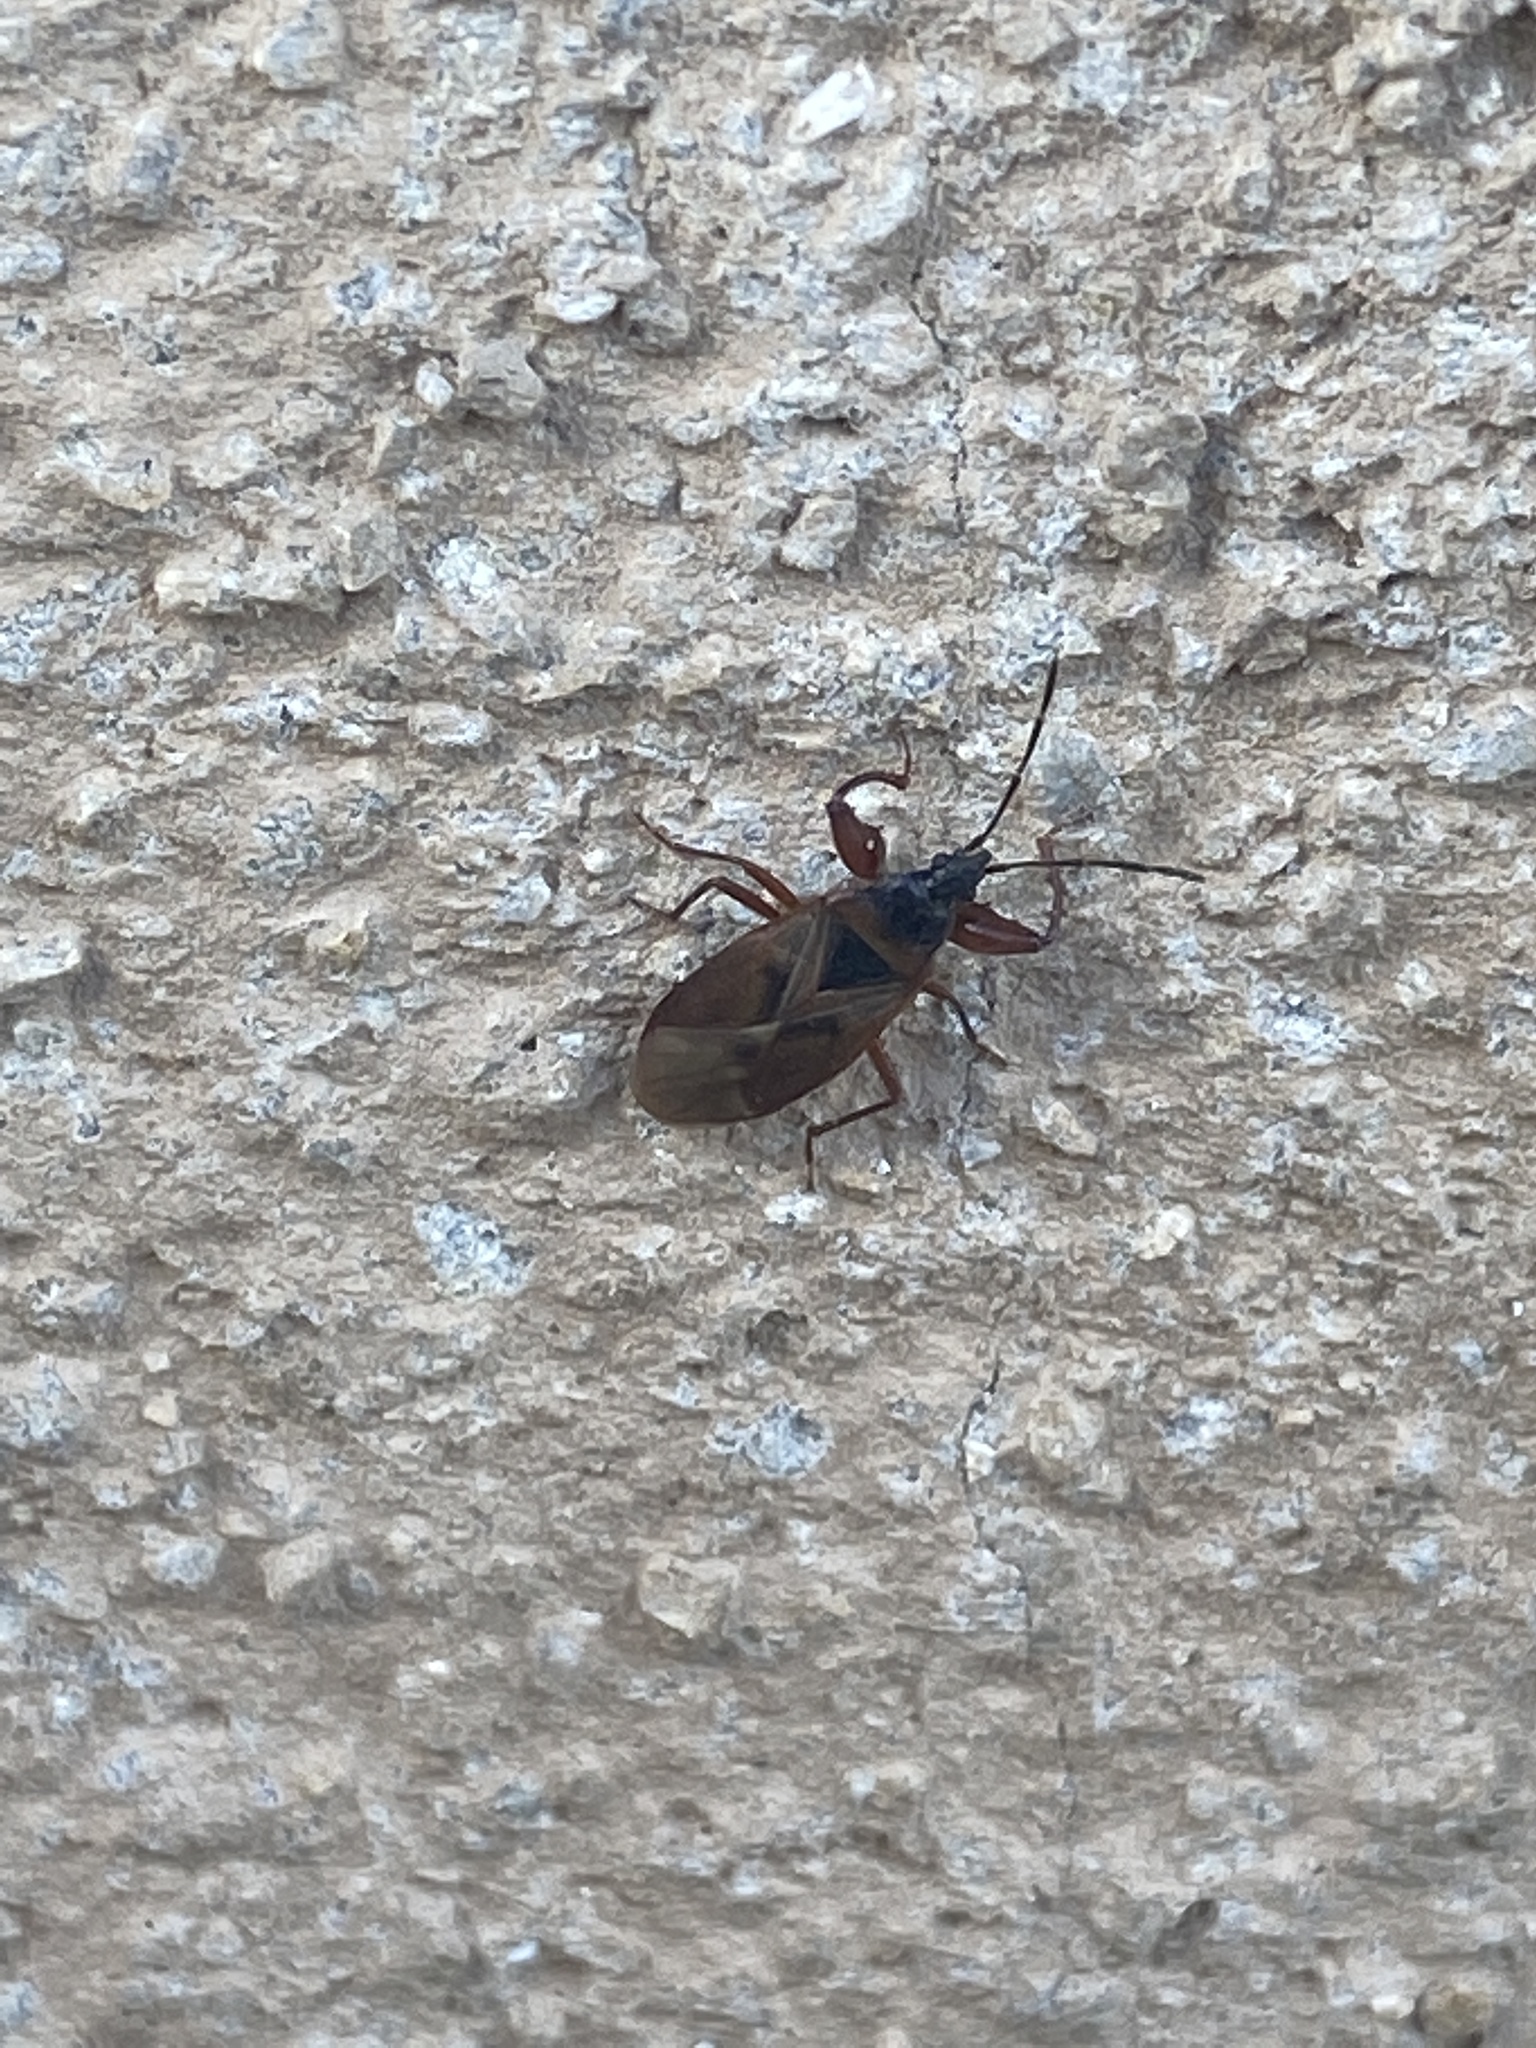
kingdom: Animalia
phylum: Arthropoda
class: Insecta
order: Hemiptera
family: Rhyparochromidae
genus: Gastrodes
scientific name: Gastrodes abietum
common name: Spruce cone bug
